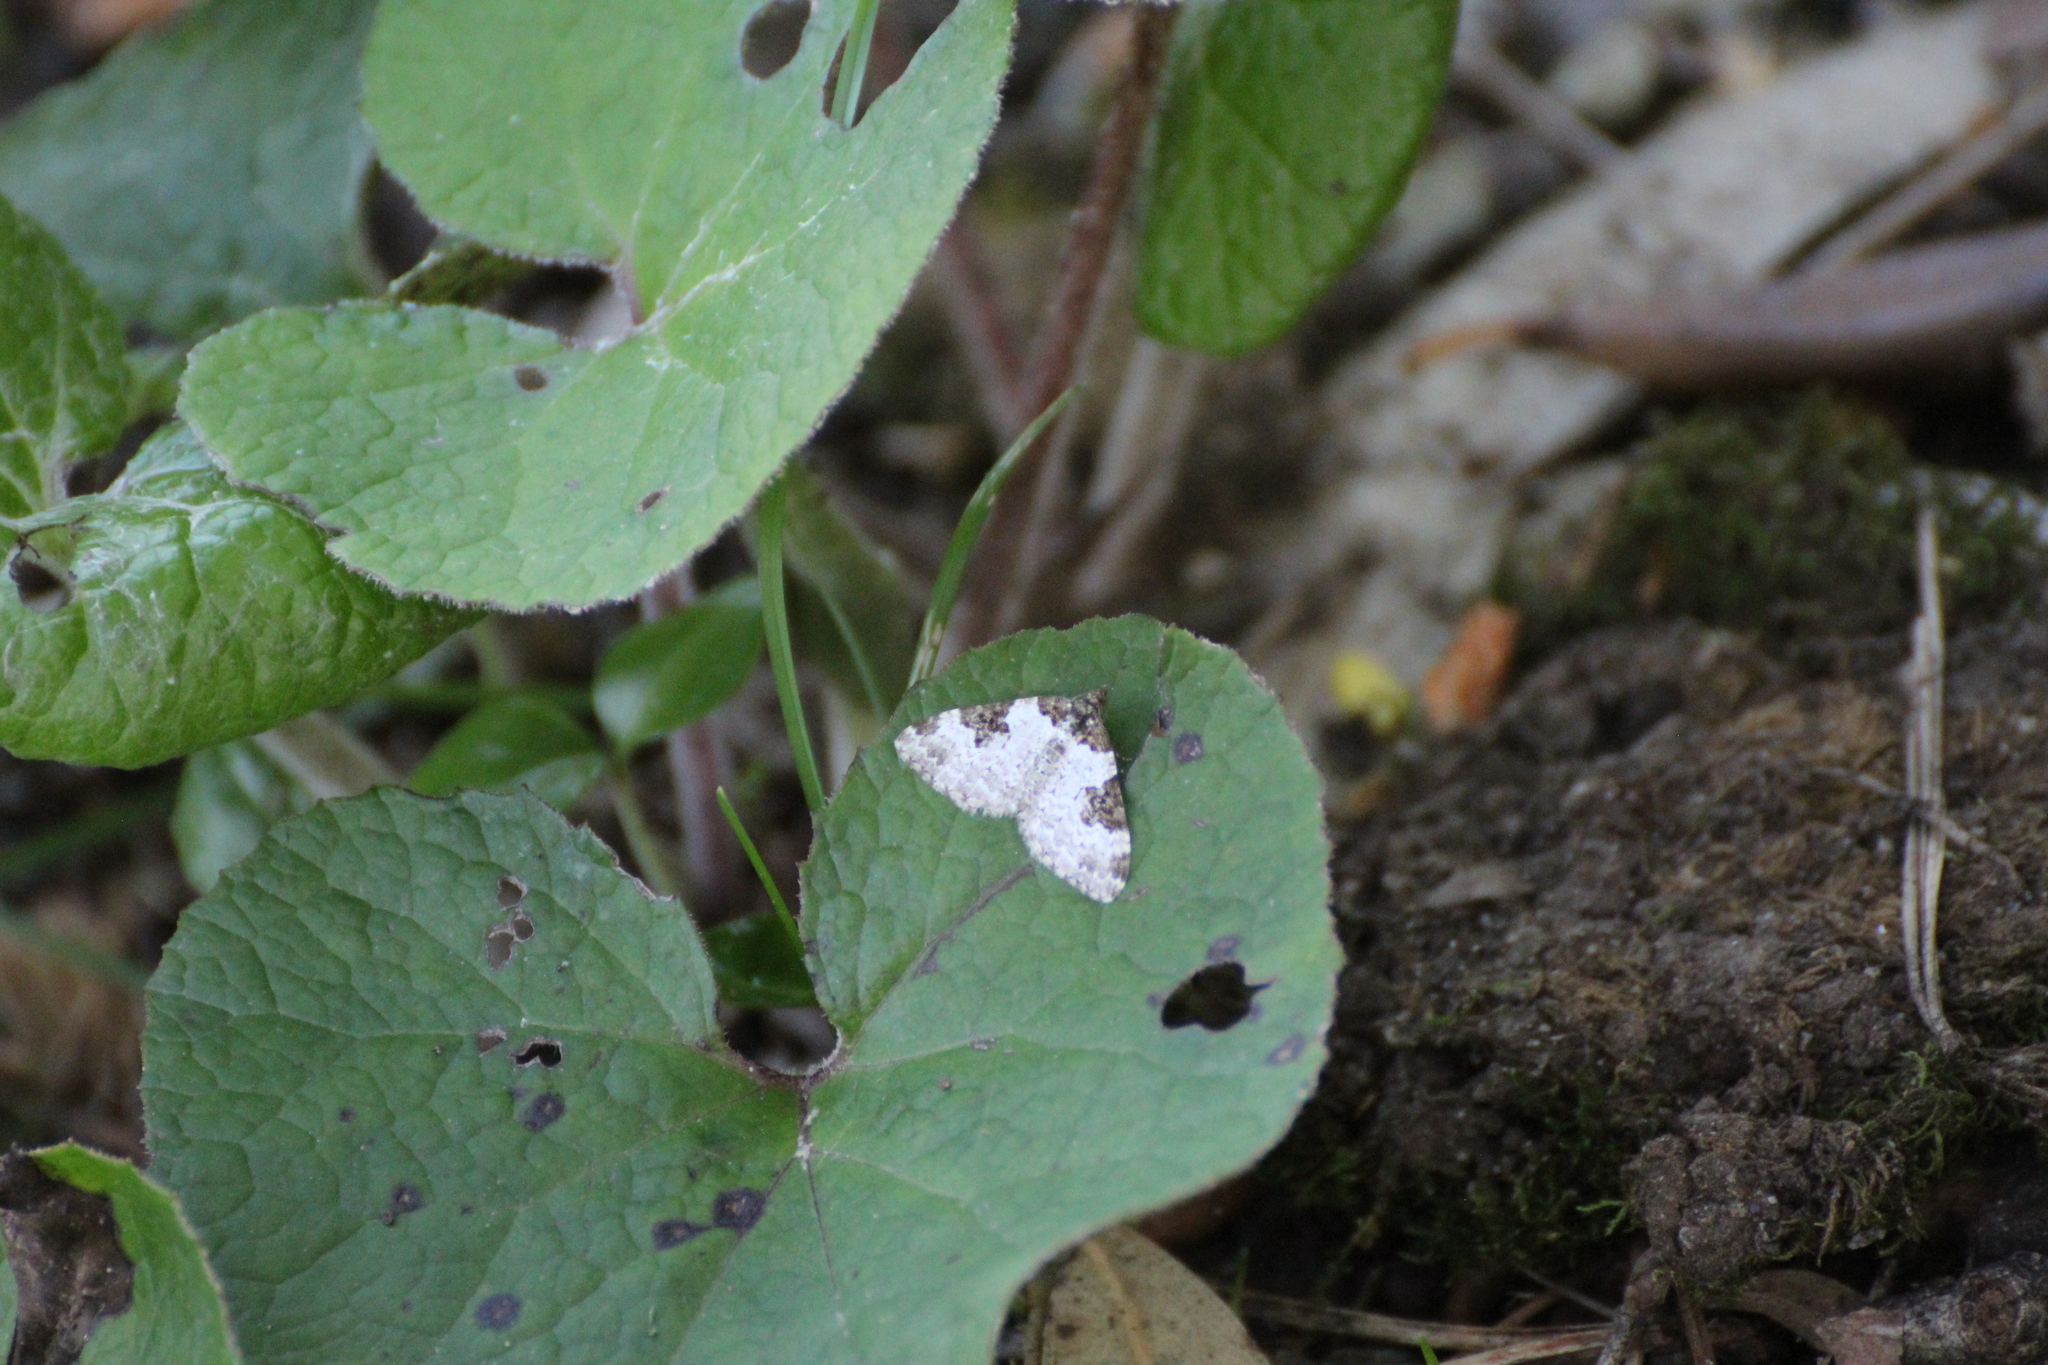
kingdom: Animalia
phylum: Arthropoda
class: Insecta
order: Lepidoptera
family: Geometridae
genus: Xanthorhoe
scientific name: Xanthorhoe fluctuata
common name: Garden carpet
